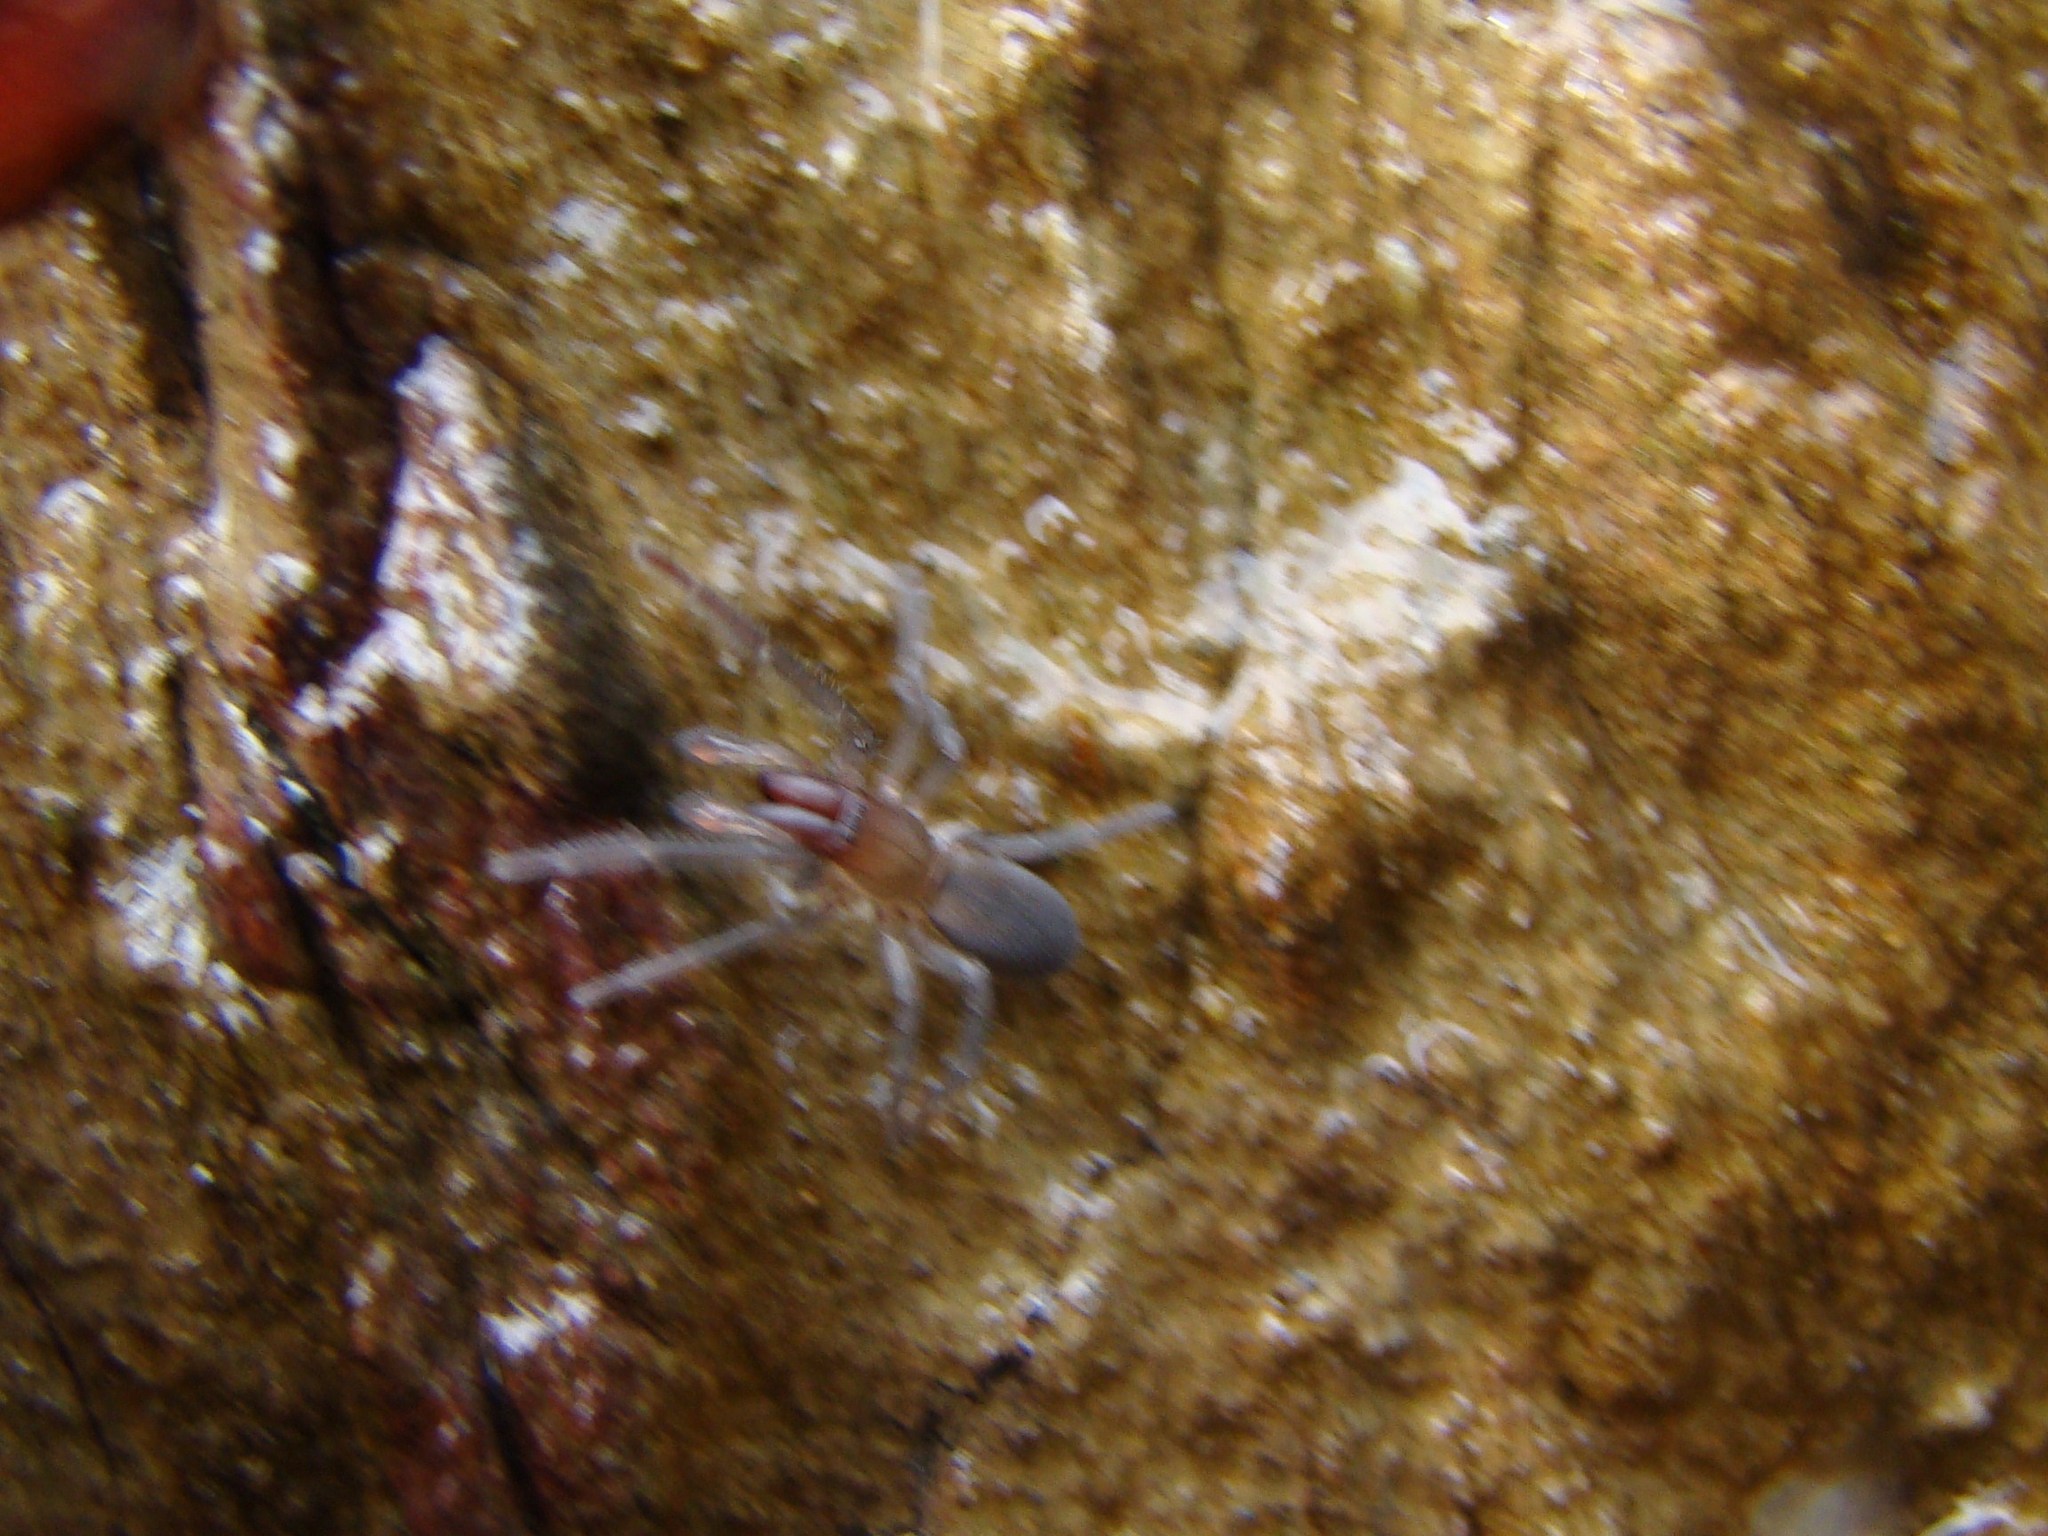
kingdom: Animalia
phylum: Arthropoda
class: Arachnida
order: Araneae
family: Desidae
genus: Desis
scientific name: Desis marina
